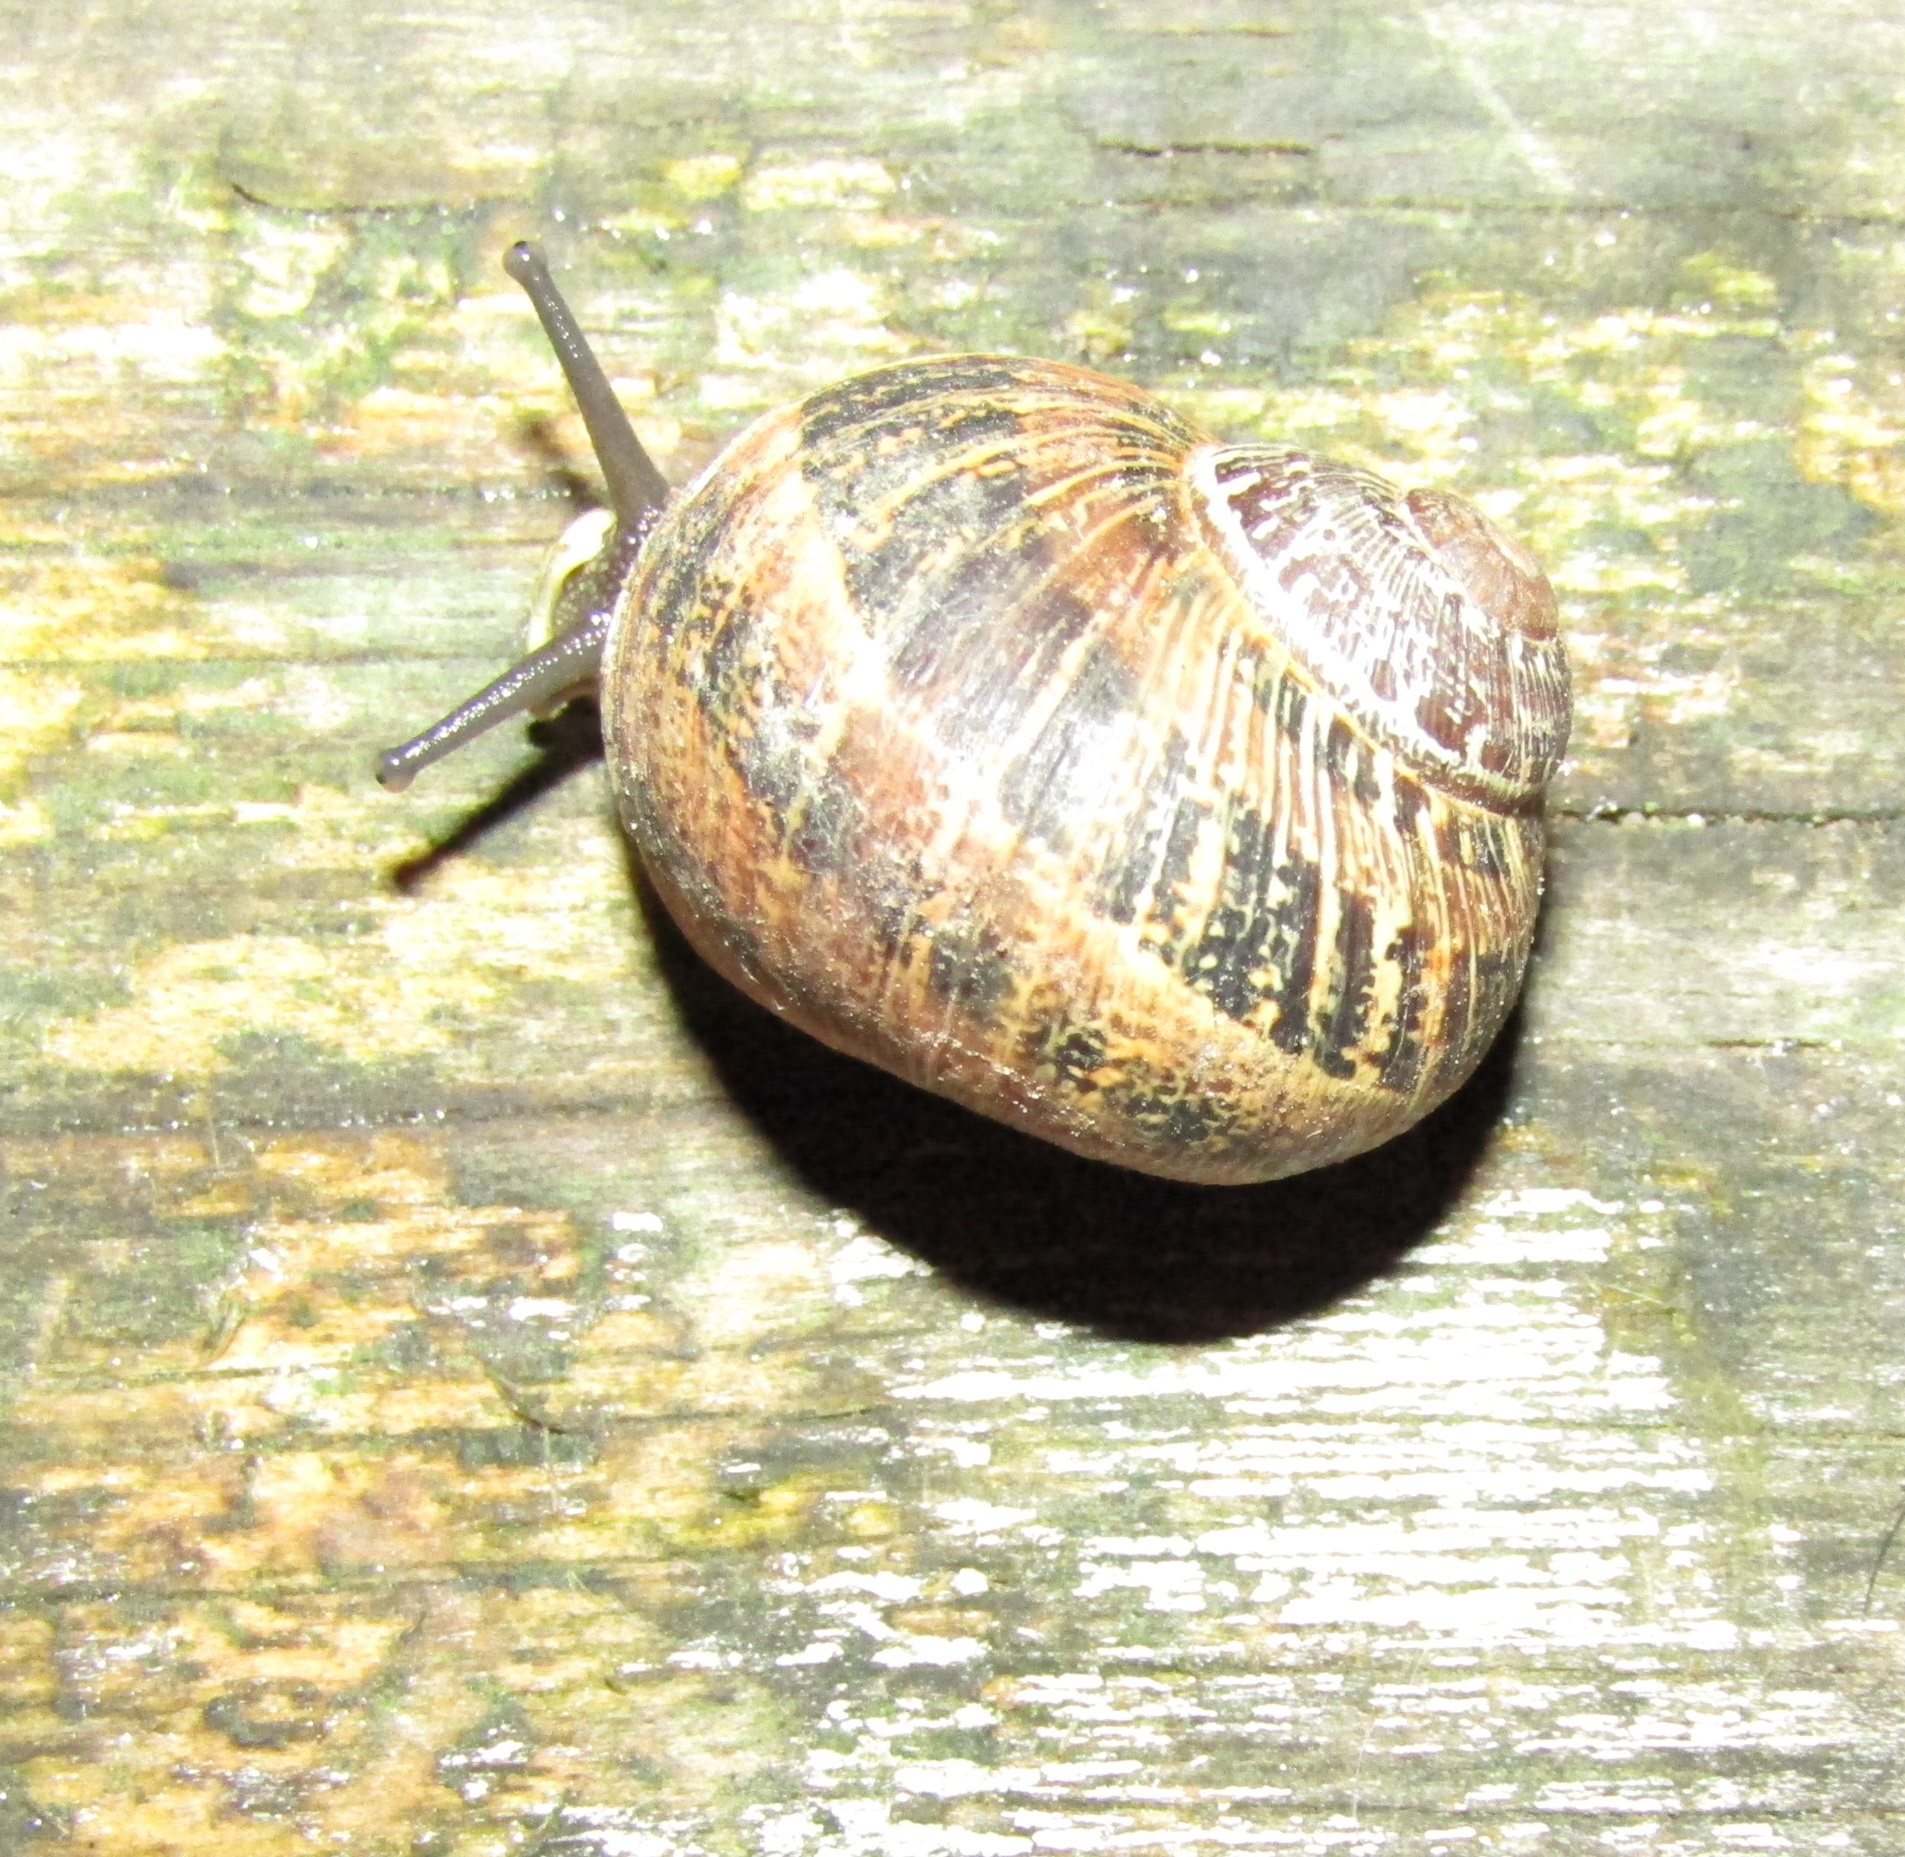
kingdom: Animalia
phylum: Mollusca
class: Gastropoda
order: Stylommatophora
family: Helicidae
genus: Cornu
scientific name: Cornu aspersum
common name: Brown garden snail
